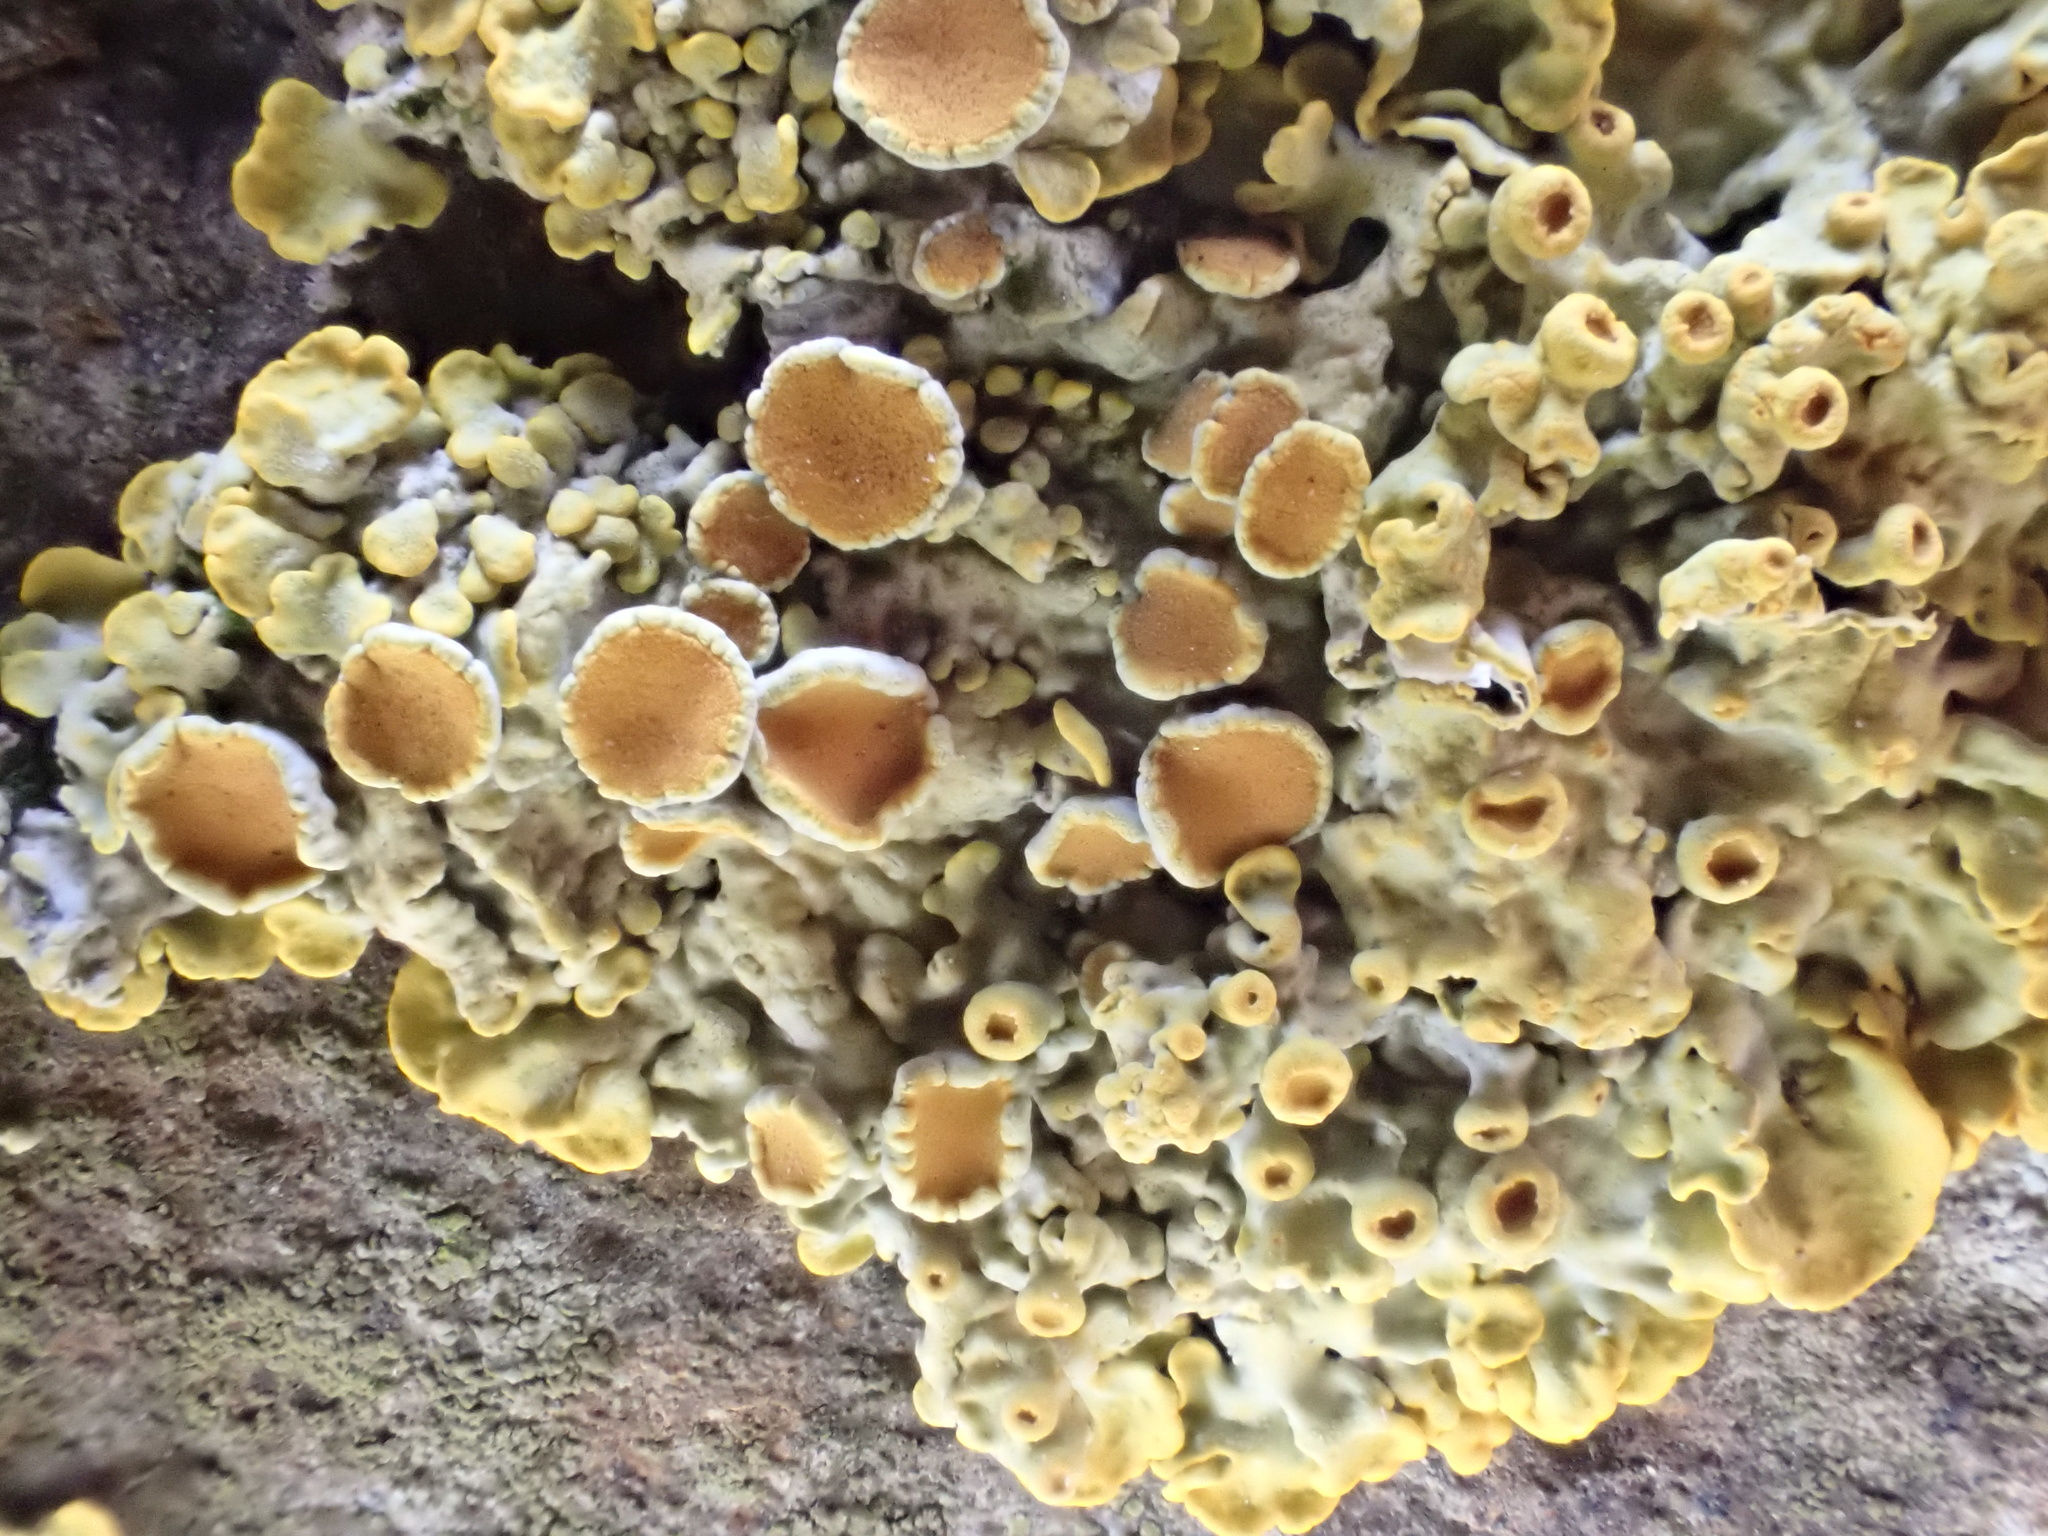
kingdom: Fungi
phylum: Ascomycota
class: Lecanoromycetes
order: Teloschistales
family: Teloschistaceae
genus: Xanthoria
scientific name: Xanthoria parietina
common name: Common orange lichen
